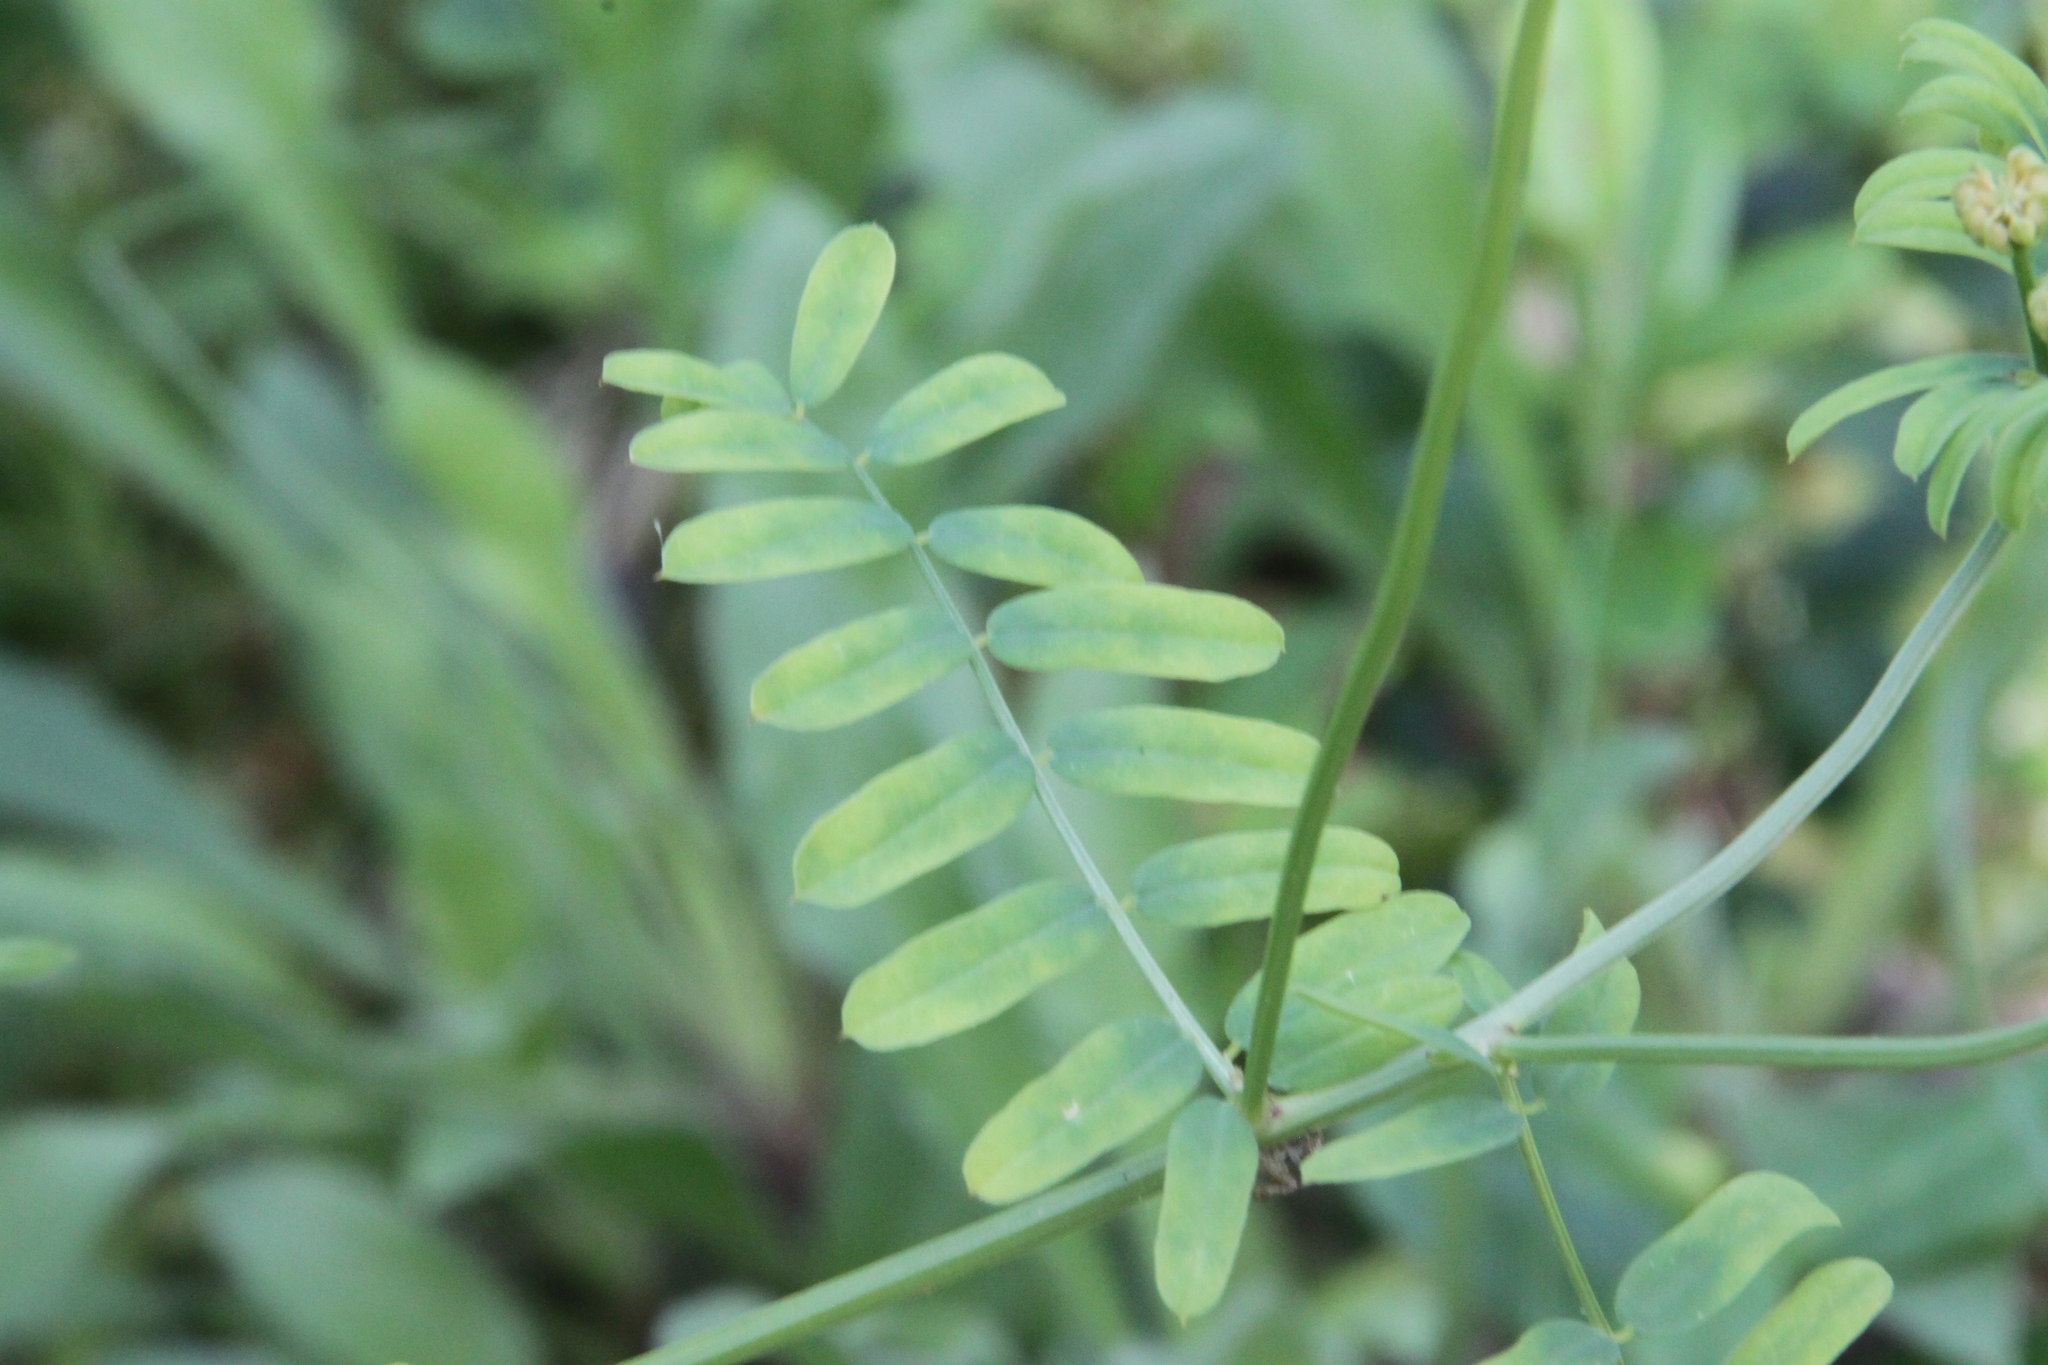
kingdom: Plantae
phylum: Tracheophyta
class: Magnoliopsida
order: Fabales
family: Fabaceae
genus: Coronilla
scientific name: Coronilla varia
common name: Crownvetch
